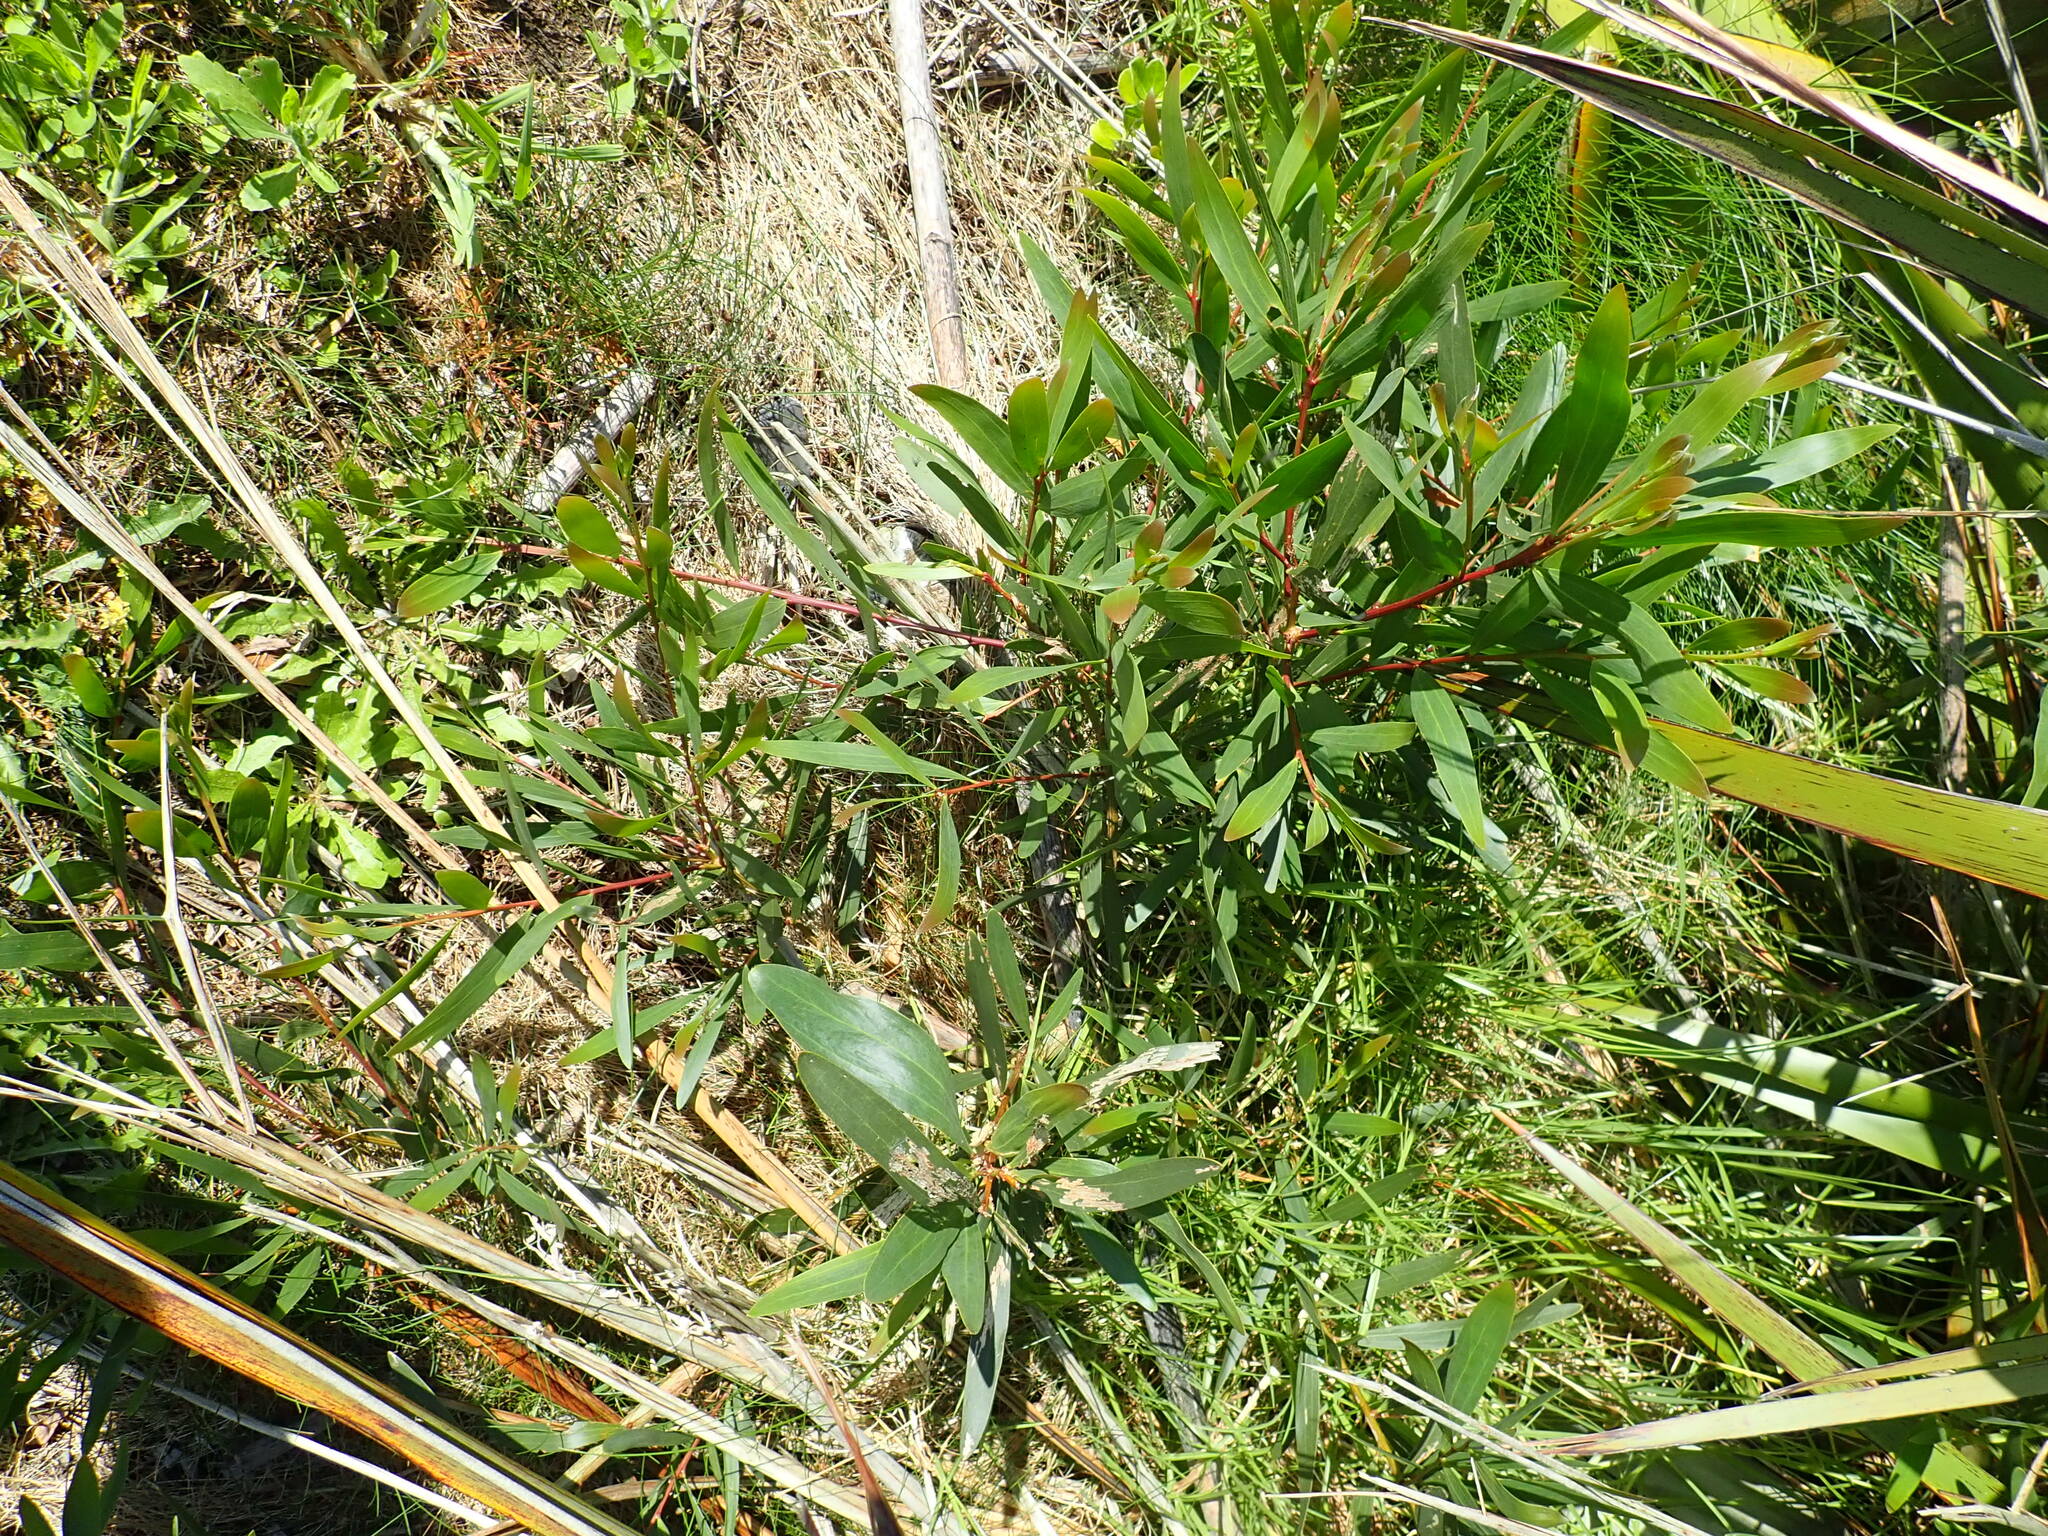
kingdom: Plantae
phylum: Tracheophyta
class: Magnoliopsida
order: Fabales
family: Fabaceae
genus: Acacia
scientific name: Acacia longifolia
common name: Sydney golden wattle
